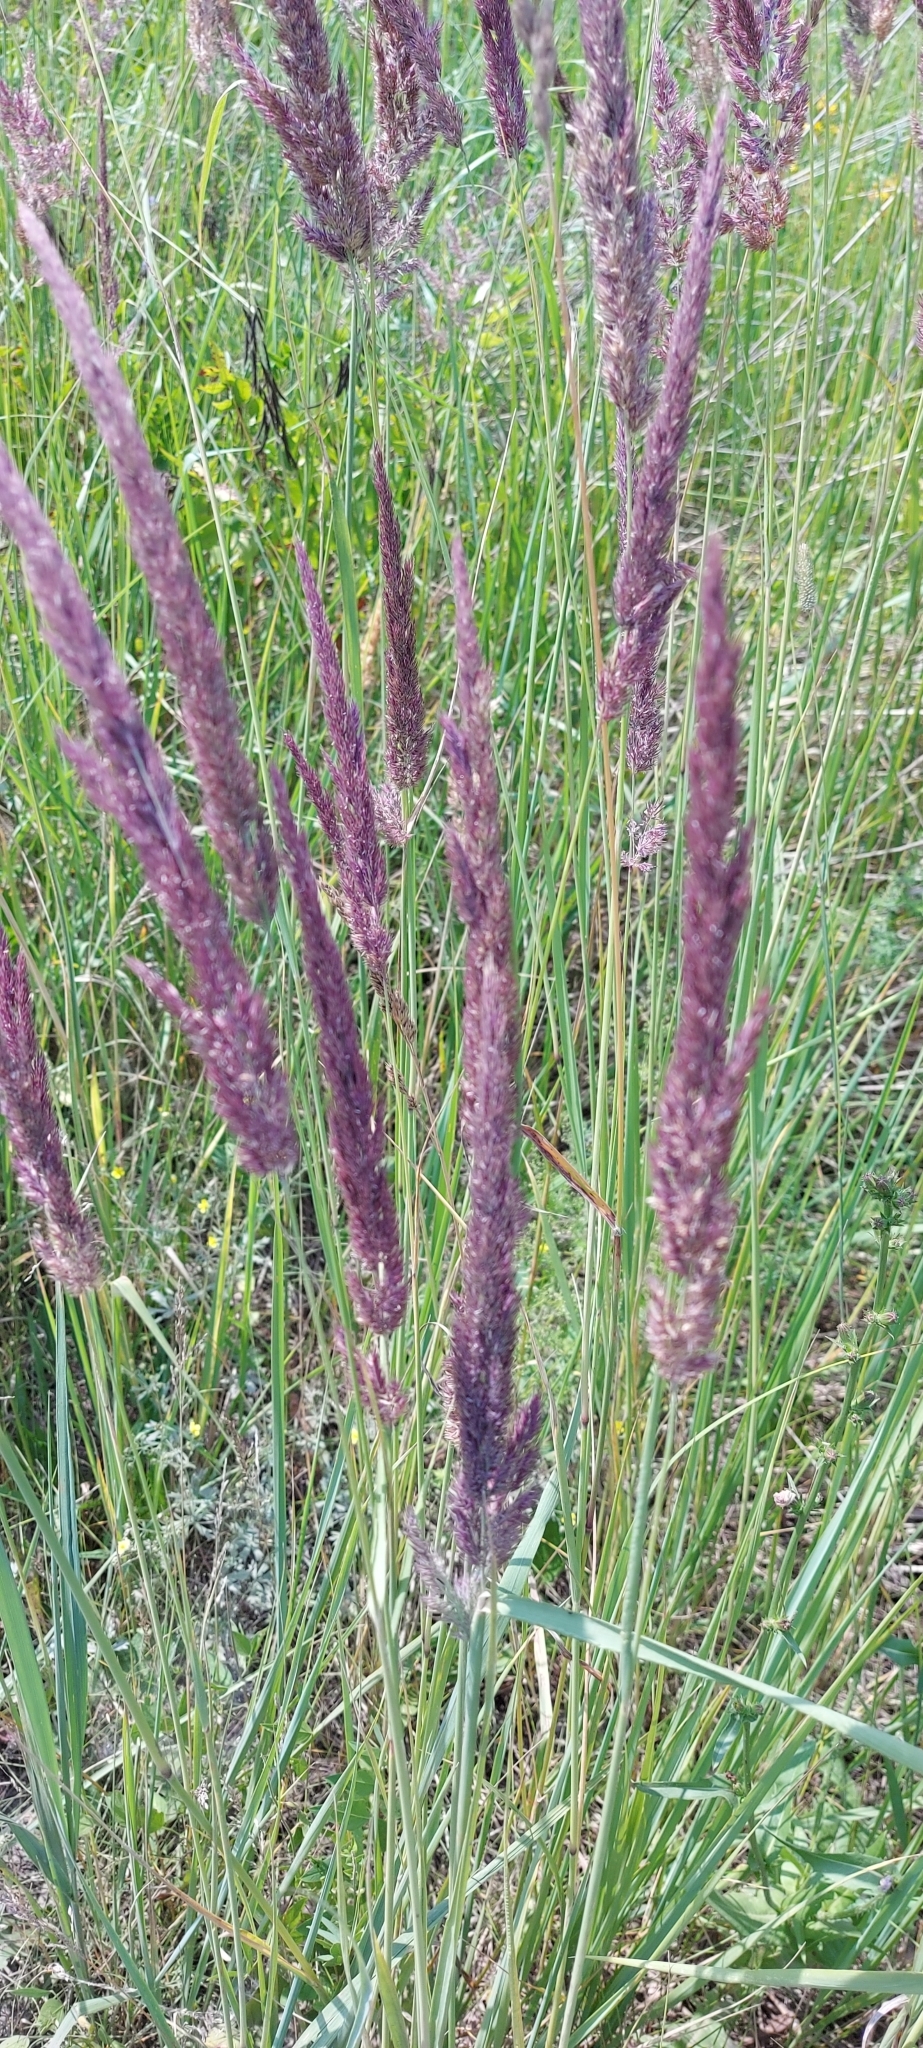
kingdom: Plantae
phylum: Tracheophyta
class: Liliopsida
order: Poales
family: Poaceae
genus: Calamagrostis
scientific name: Calamagrostis epigejos
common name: Wood small-reed
